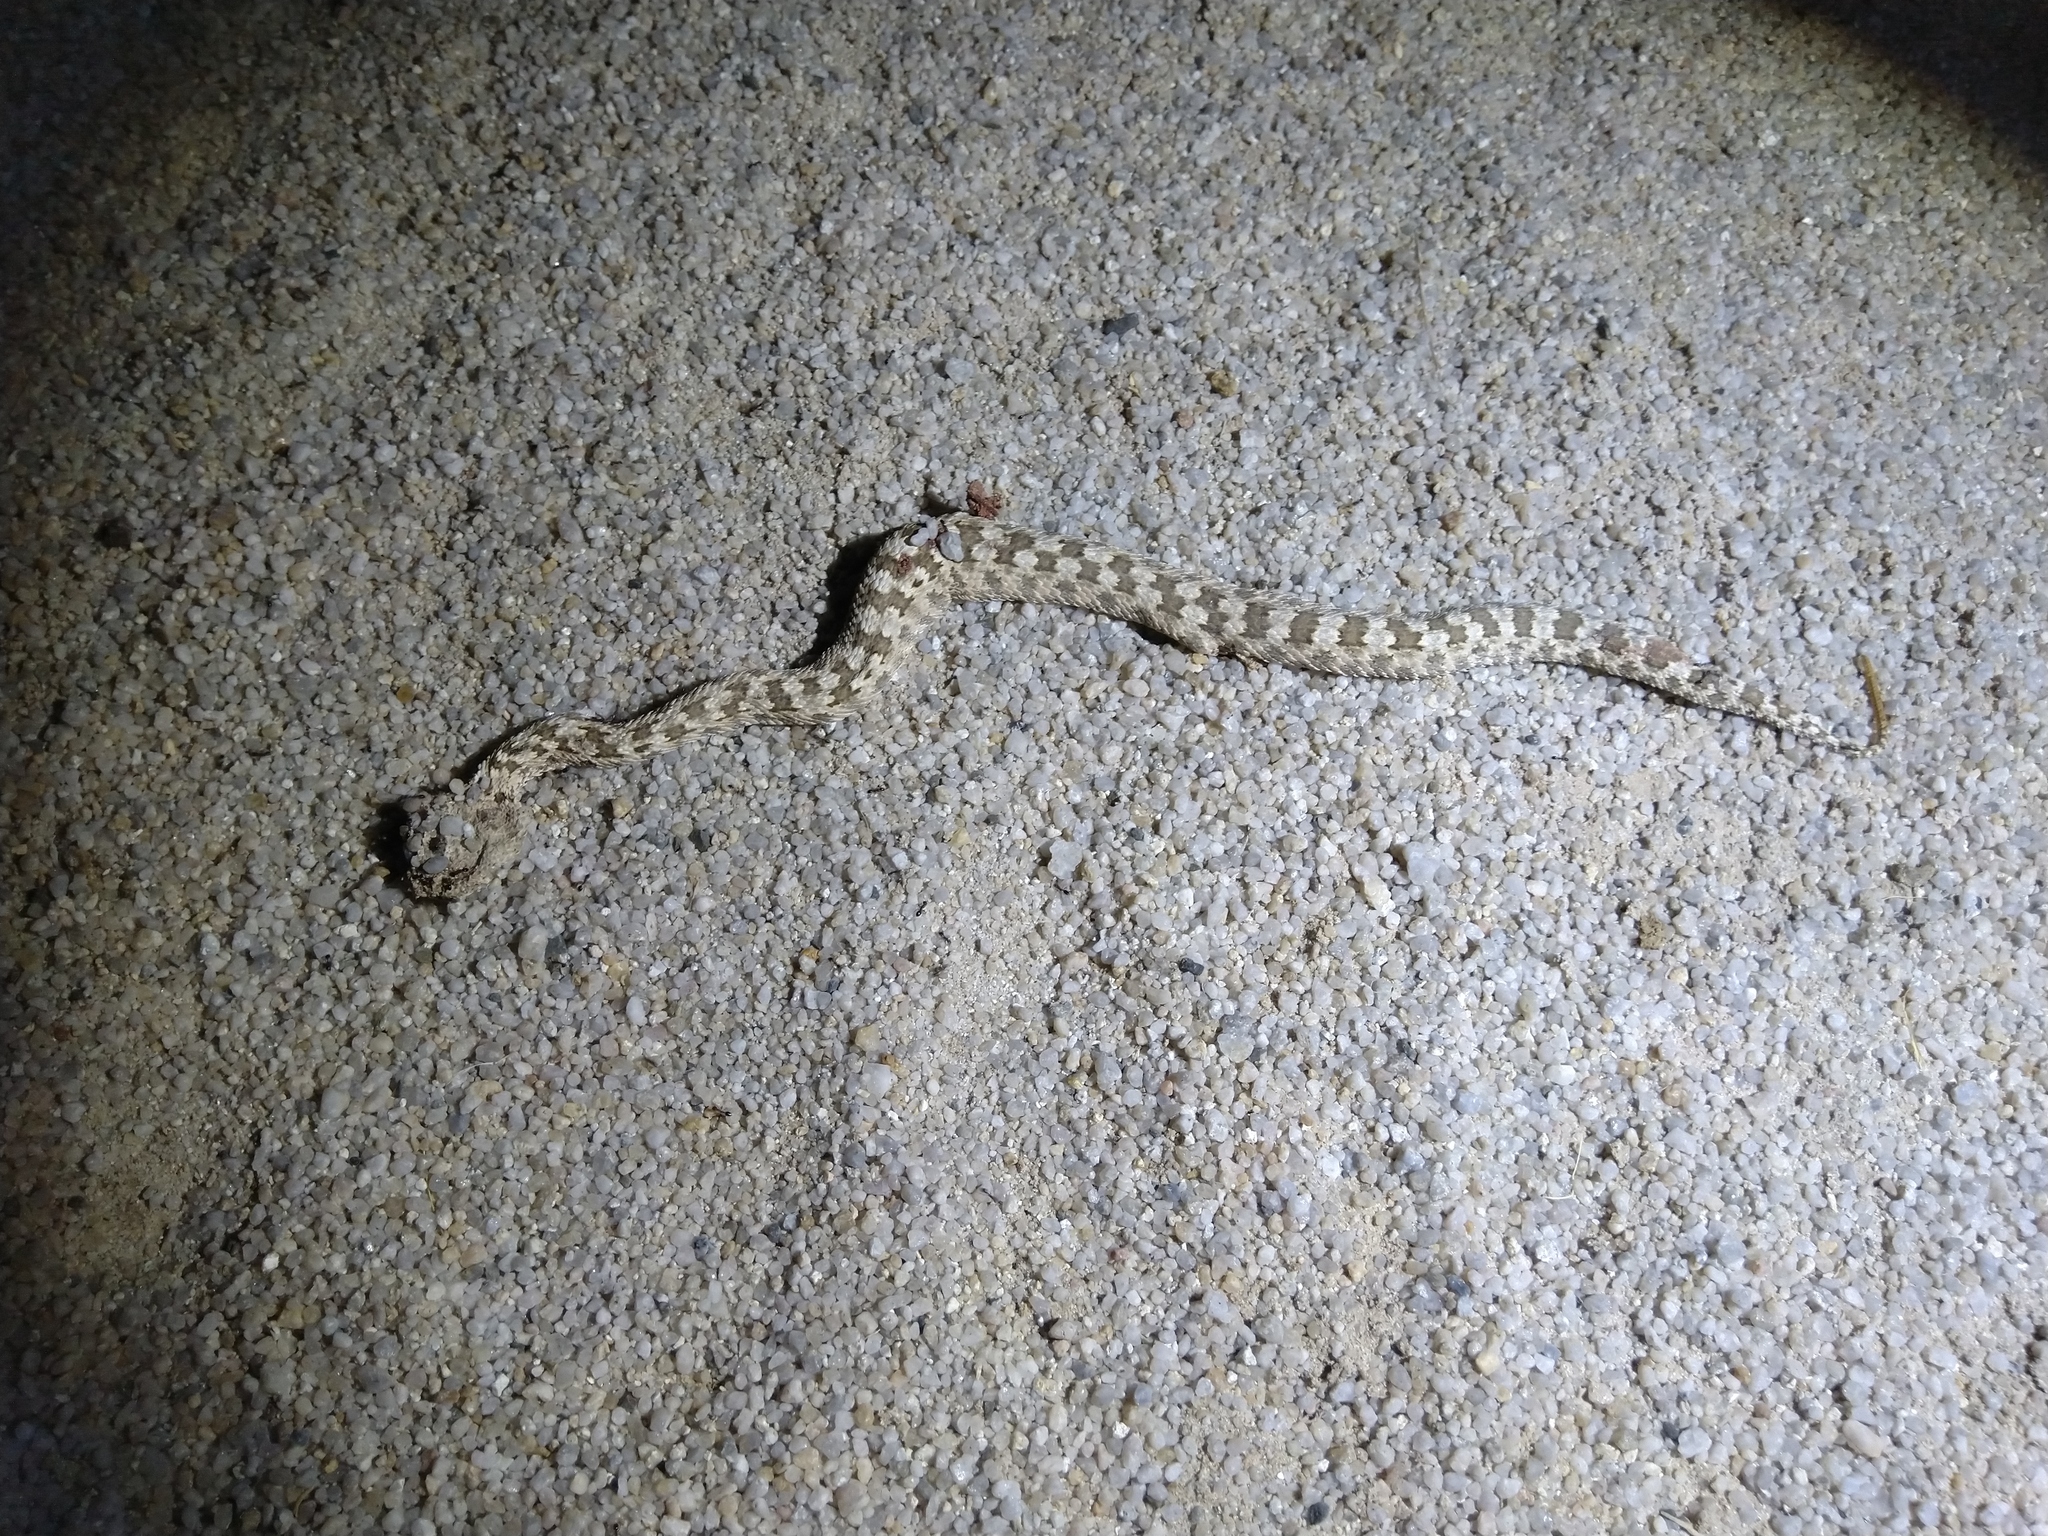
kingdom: Animalia
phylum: Chordata
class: Squamata
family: Viperidae
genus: Pseudocerastes
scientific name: Pseudocerastes persicus
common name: Persian horned viper
